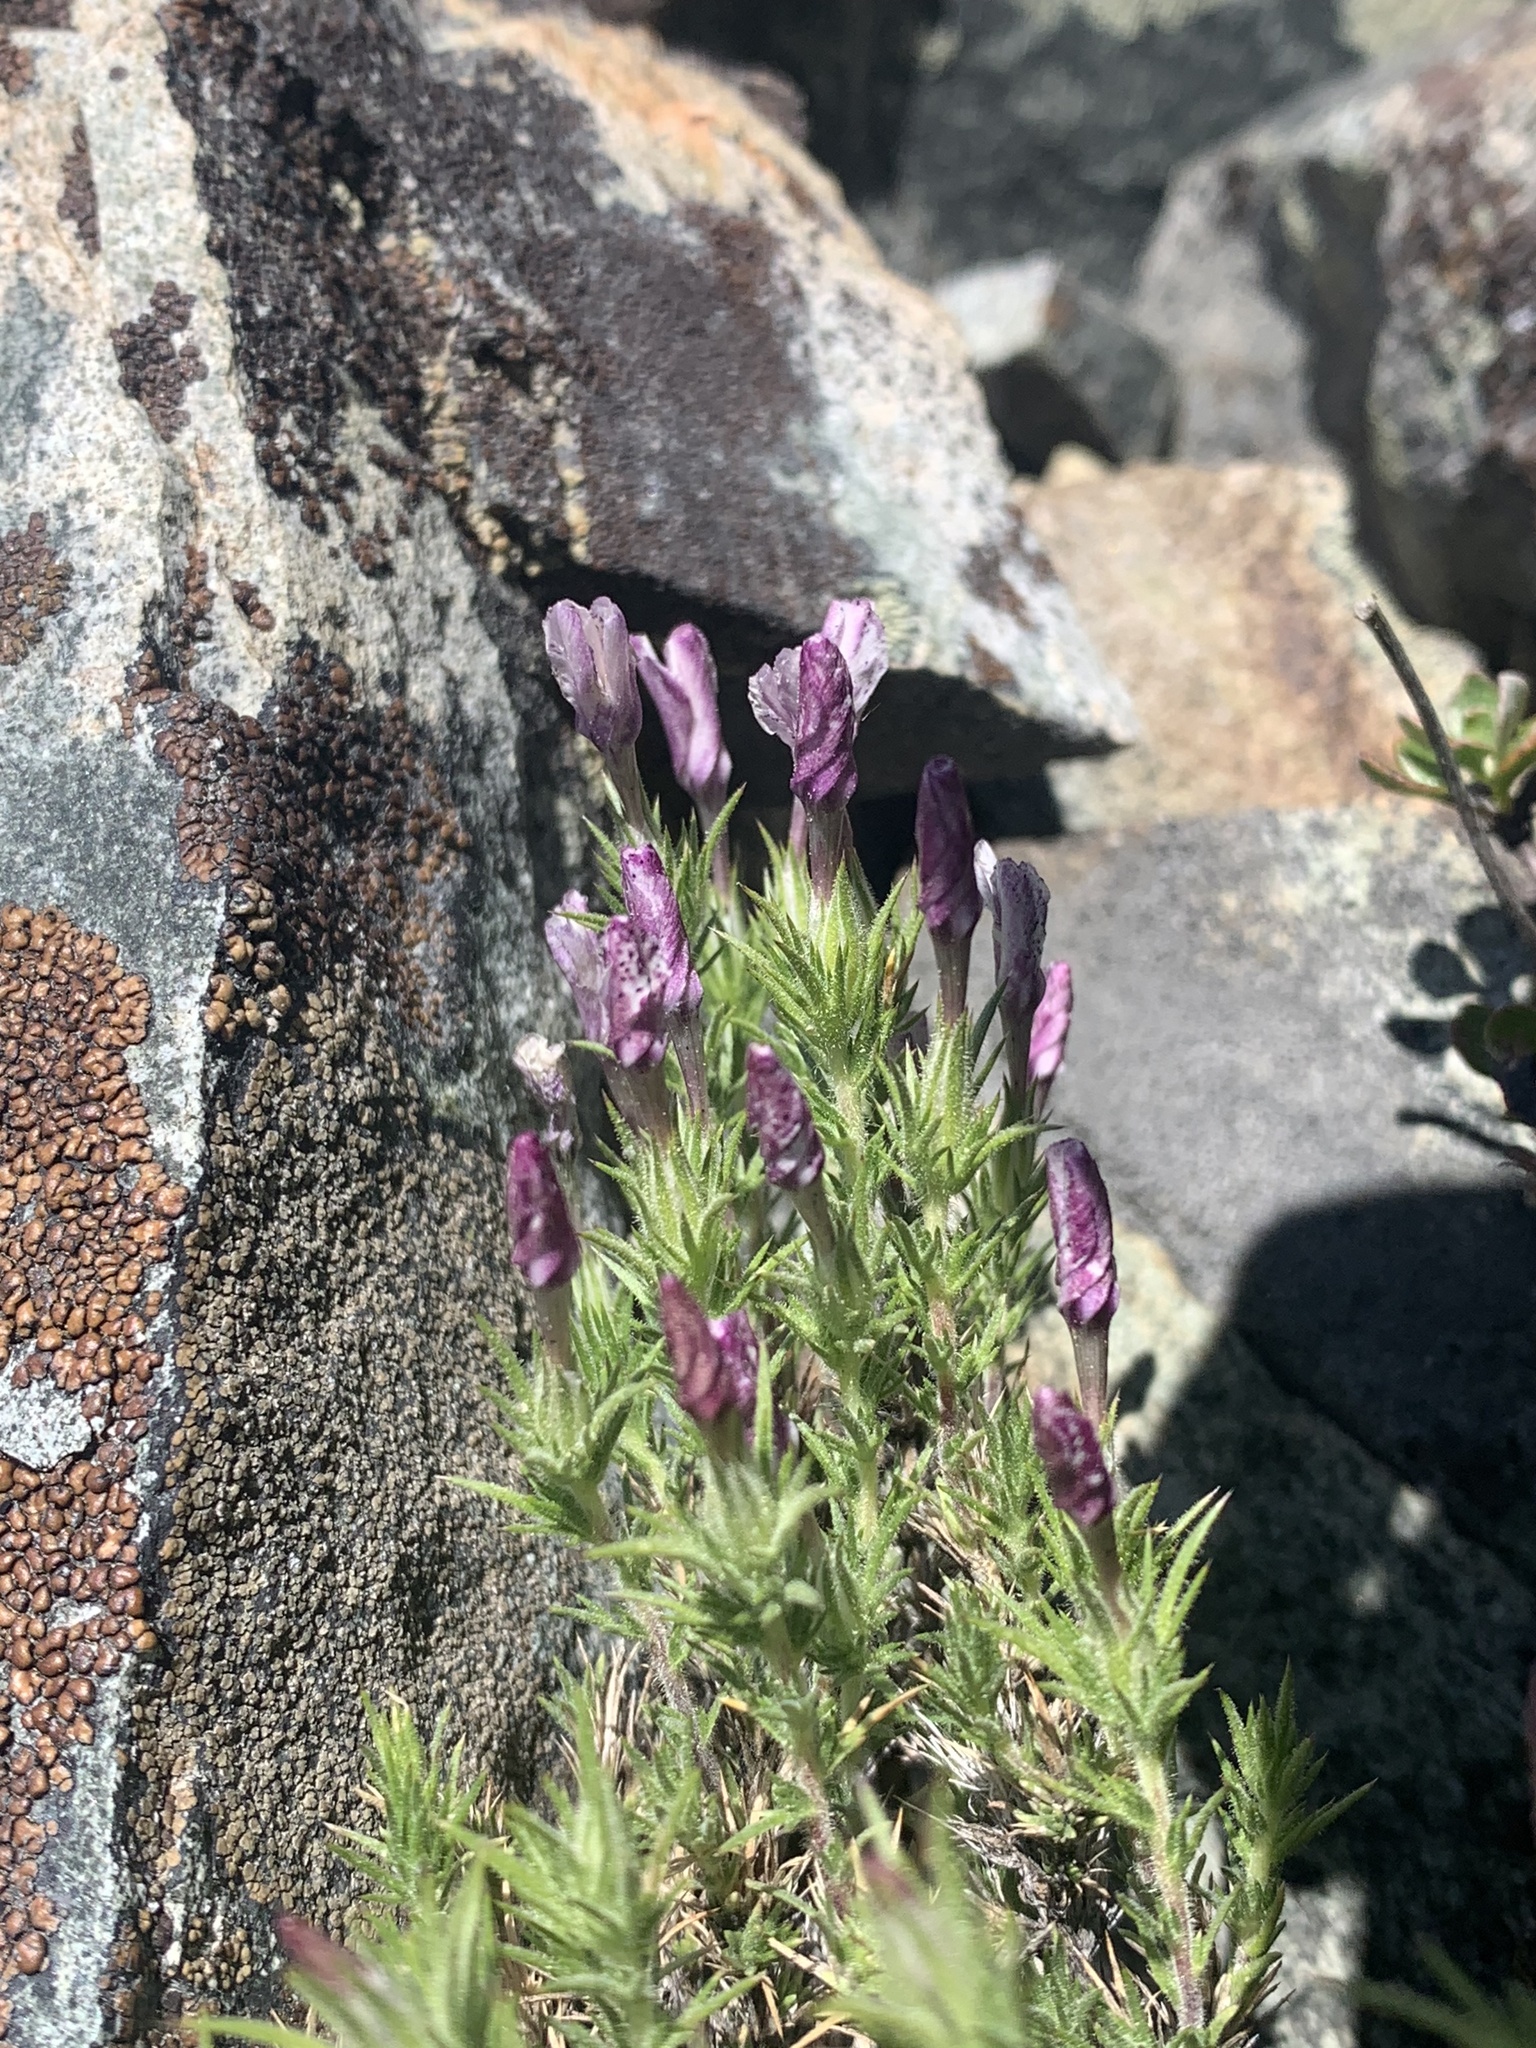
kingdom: Plantae
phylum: Tracheophyta
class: Magnoliopsida
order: Ericales
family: Polemoniaceae
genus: Linanthus
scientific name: Linanthus pungens
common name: Granite prickly phlox
